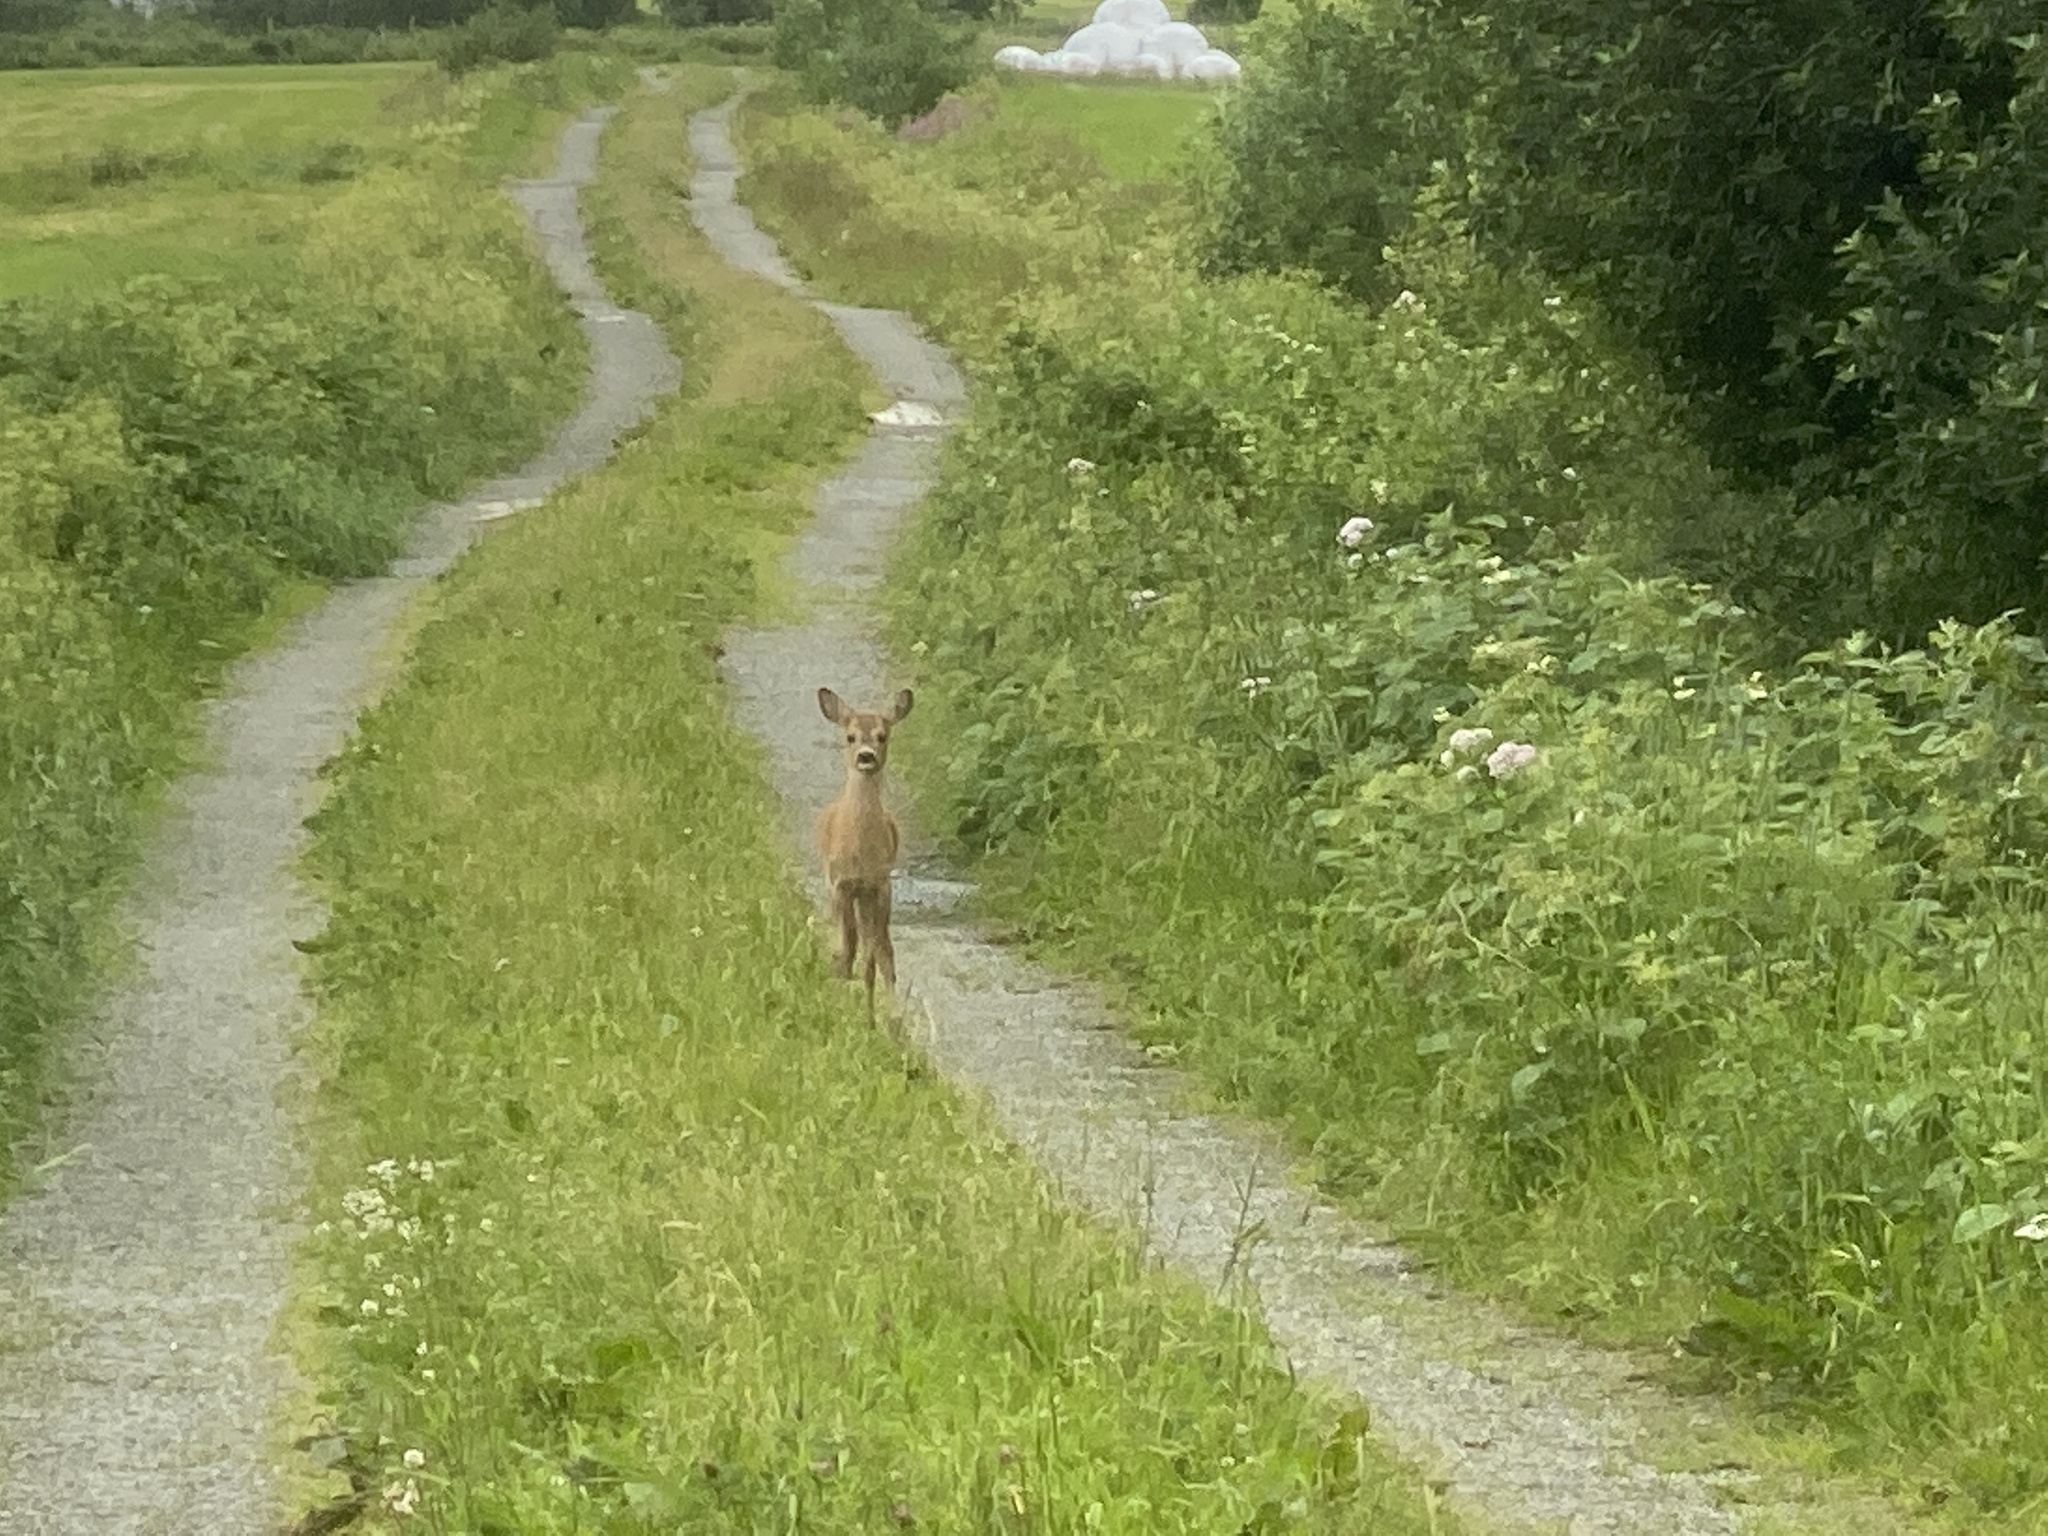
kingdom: Animalia
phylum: Chordata
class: Mammalia
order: Artiodactyla
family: Cervidae
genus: Capreolus
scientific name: Capreolus capreolus
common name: Western roe deer
